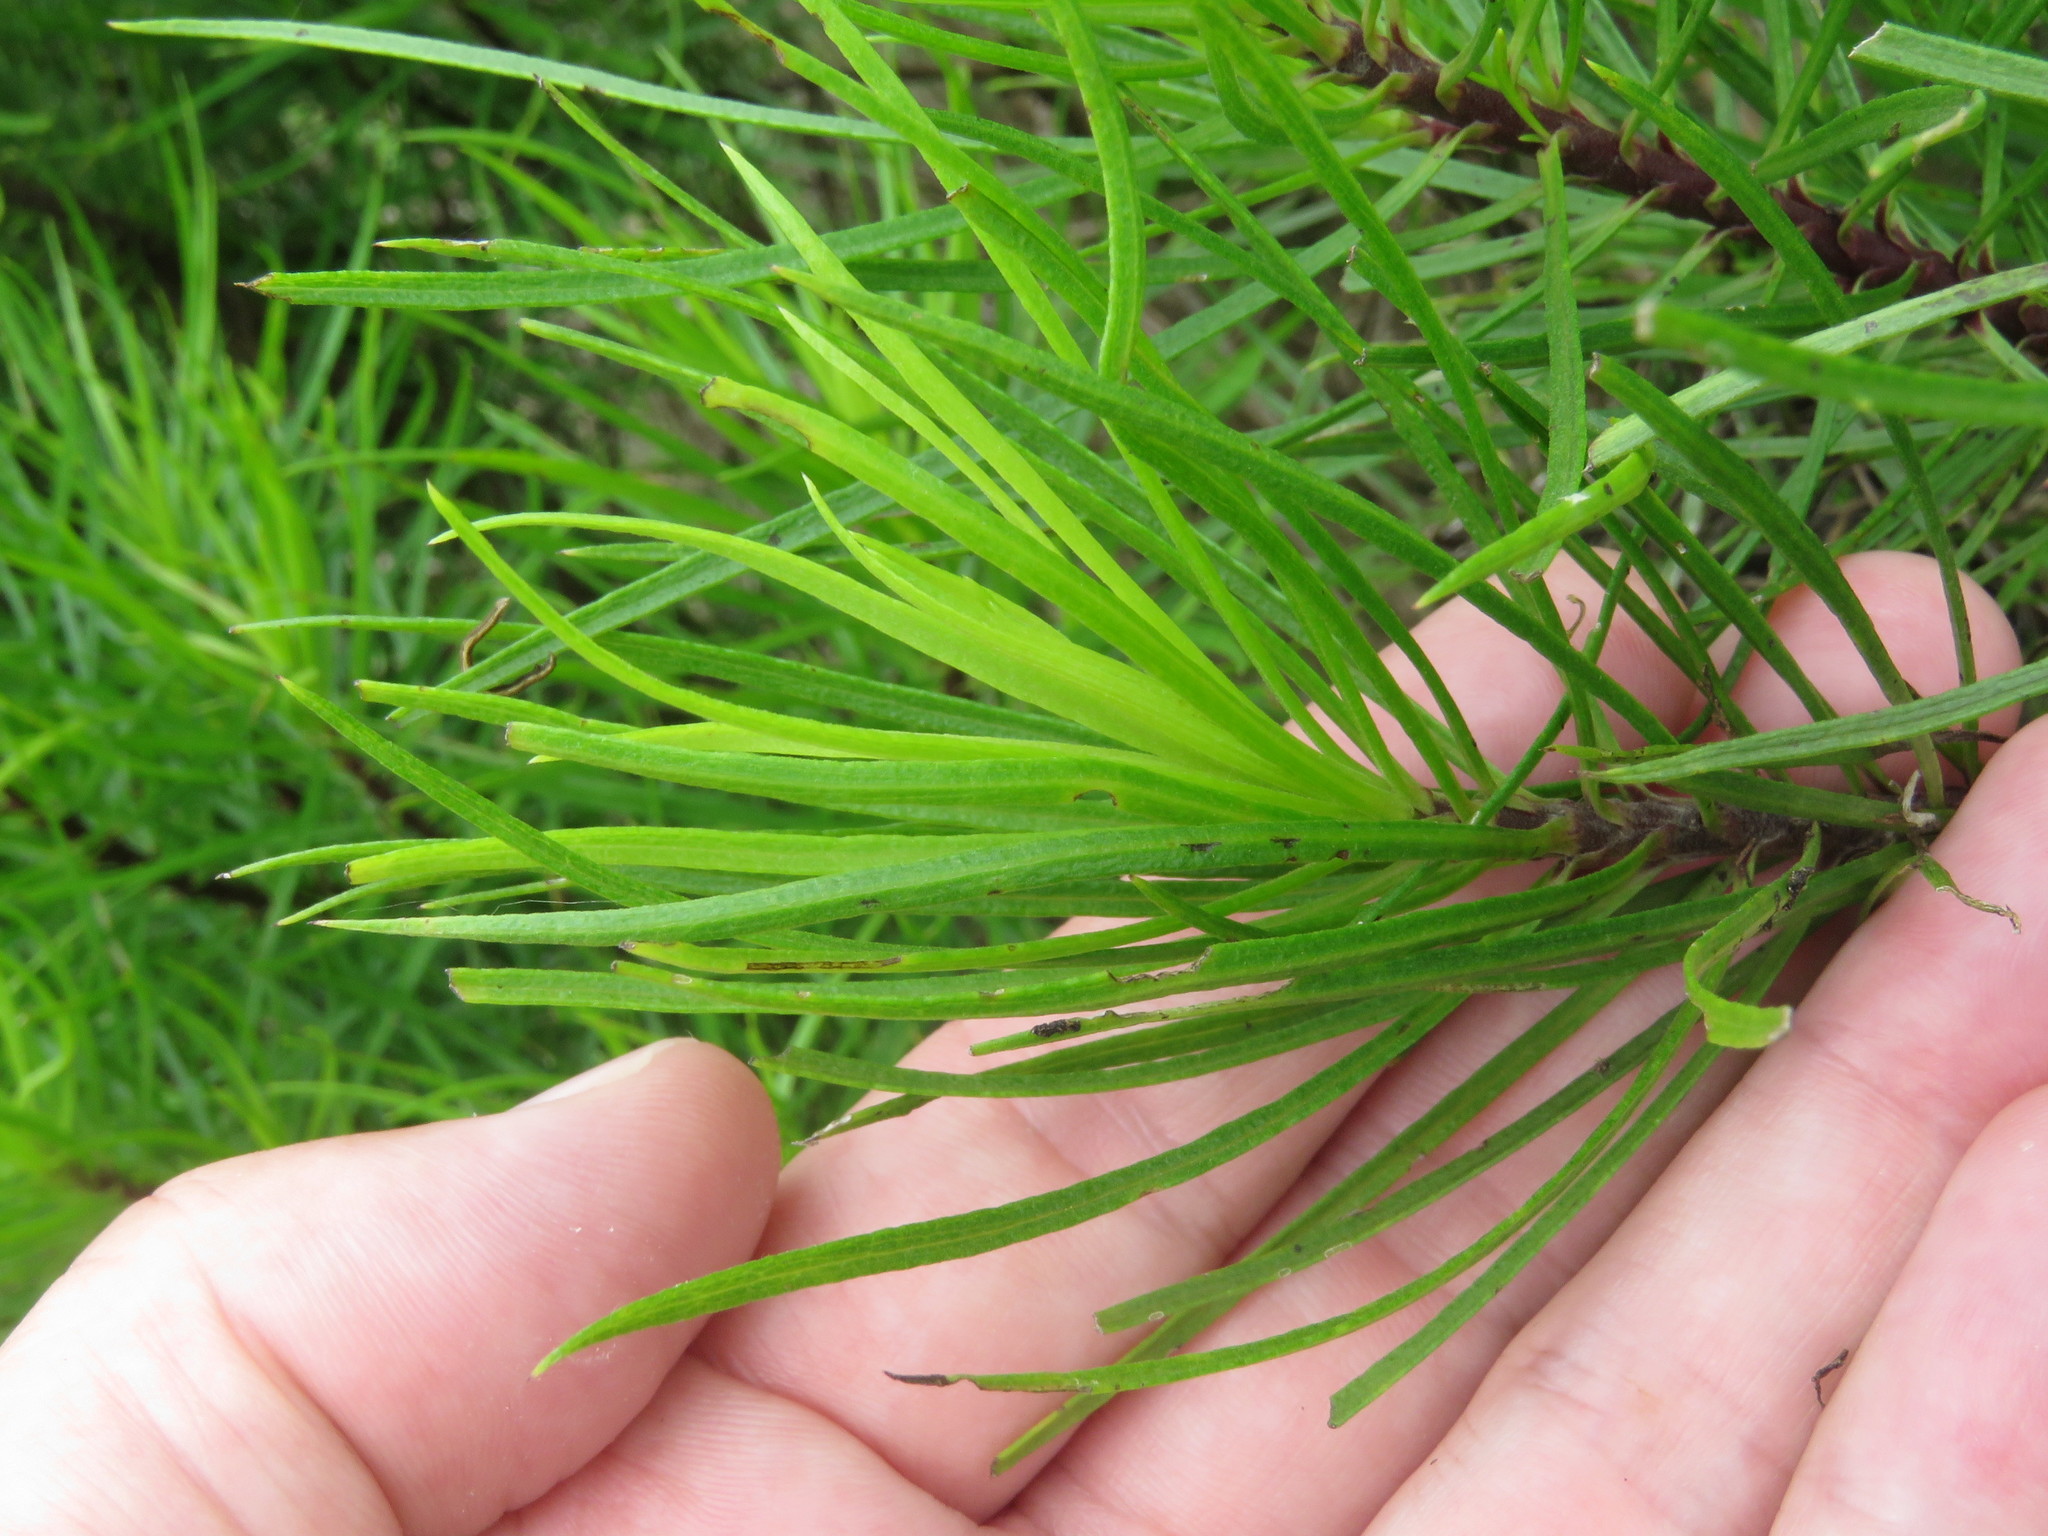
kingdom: Plantae
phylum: Tracheophyta
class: Magnoliopsida
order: Asterales
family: Asteraceae
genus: Erigeron
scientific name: Erigeron tenuifolius
